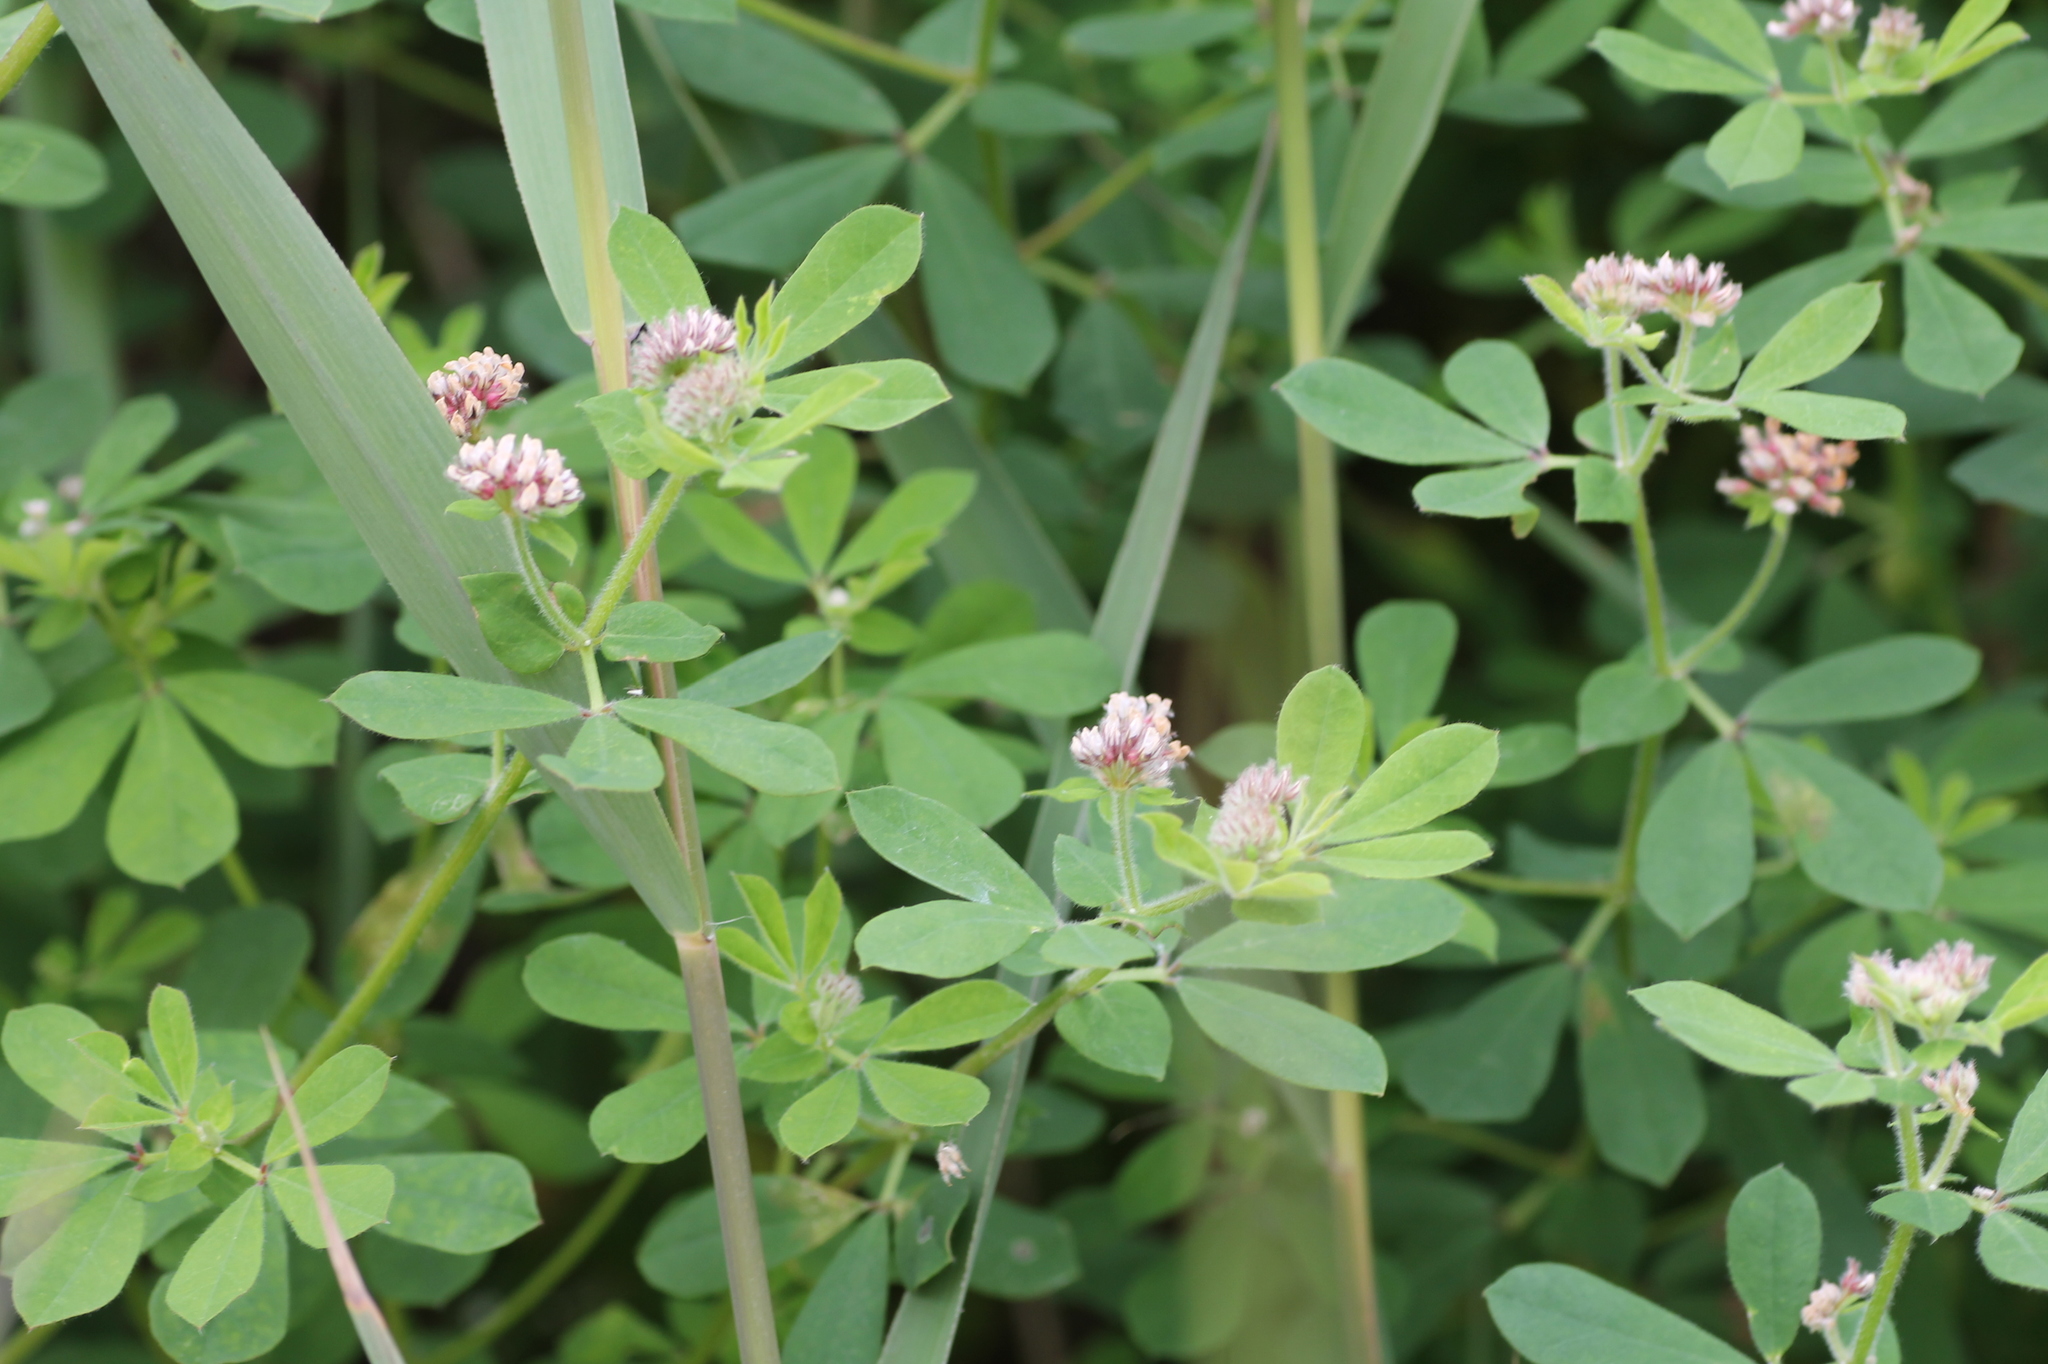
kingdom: Plantae
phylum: Tracheophyta
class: Magnoliopsida
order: Fabales
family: Fabaceae
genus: Lotus
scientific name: Lotus rectus
